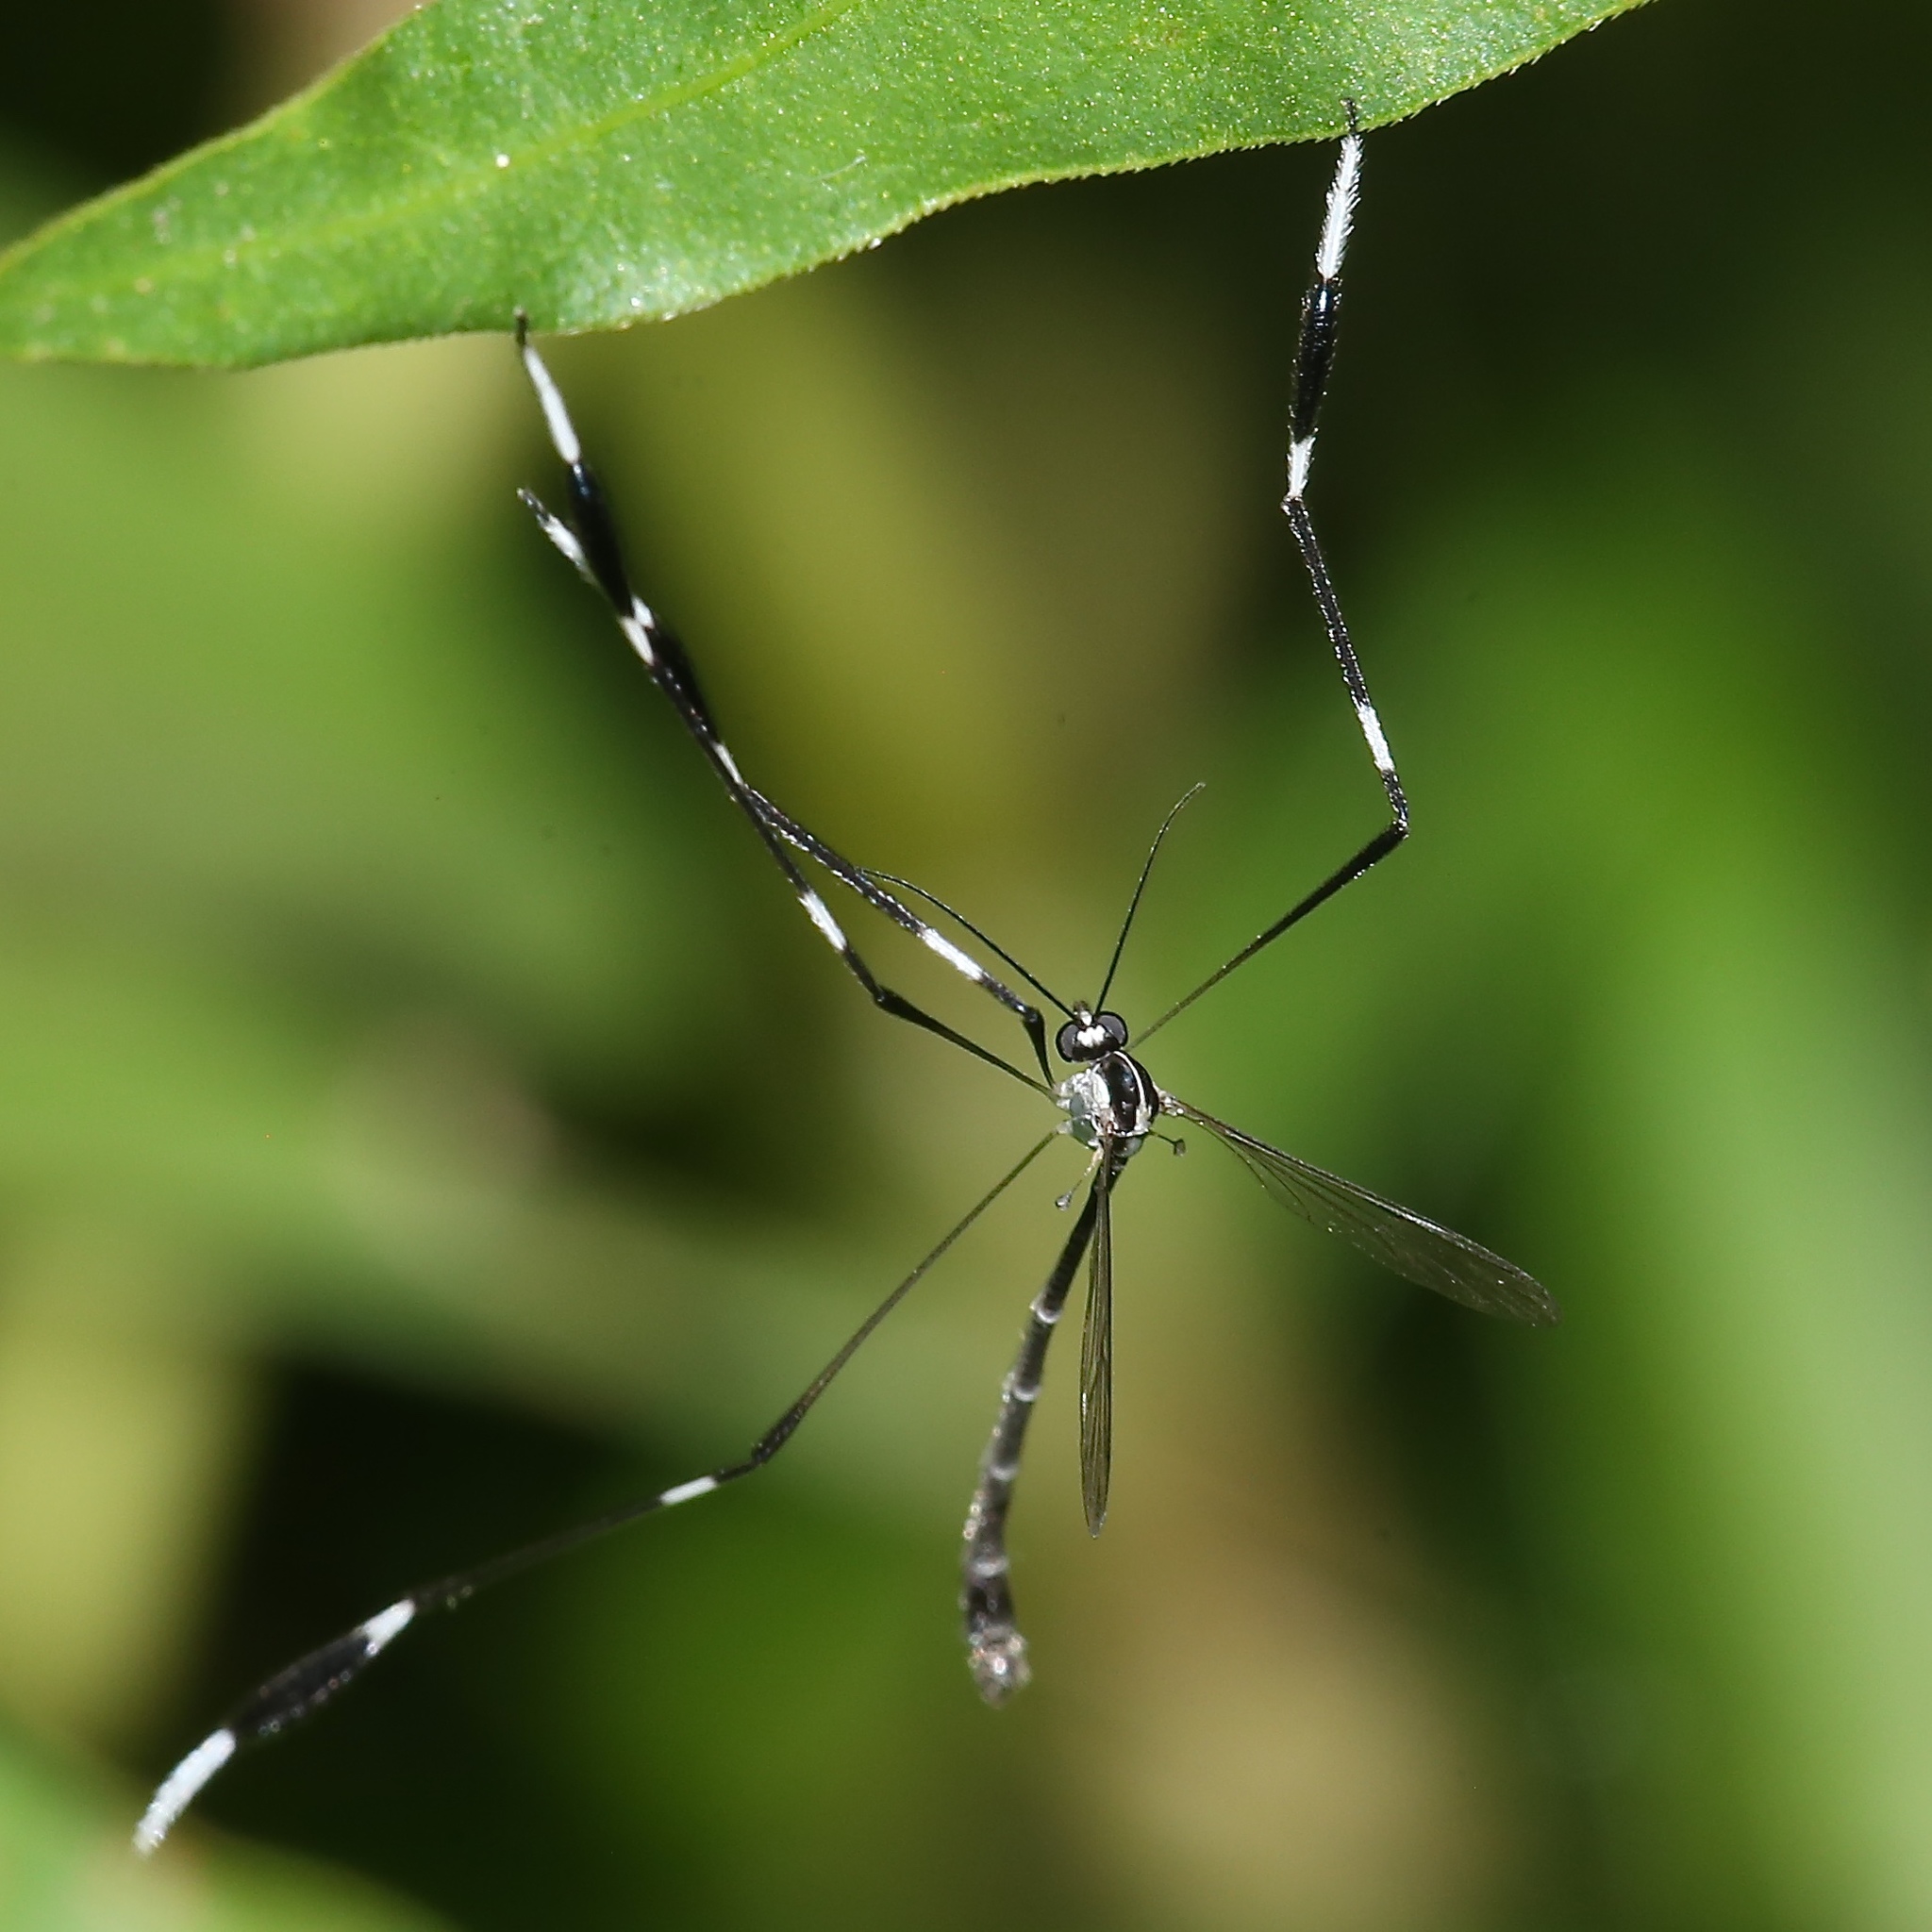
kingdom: Animalia
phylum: Arthropoda
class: Insecta
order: Diptera
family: Ptychopteridae
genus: Bittacomorpha
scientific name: Bittacomorpha clavipes
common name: Eastern phantom crane fly
